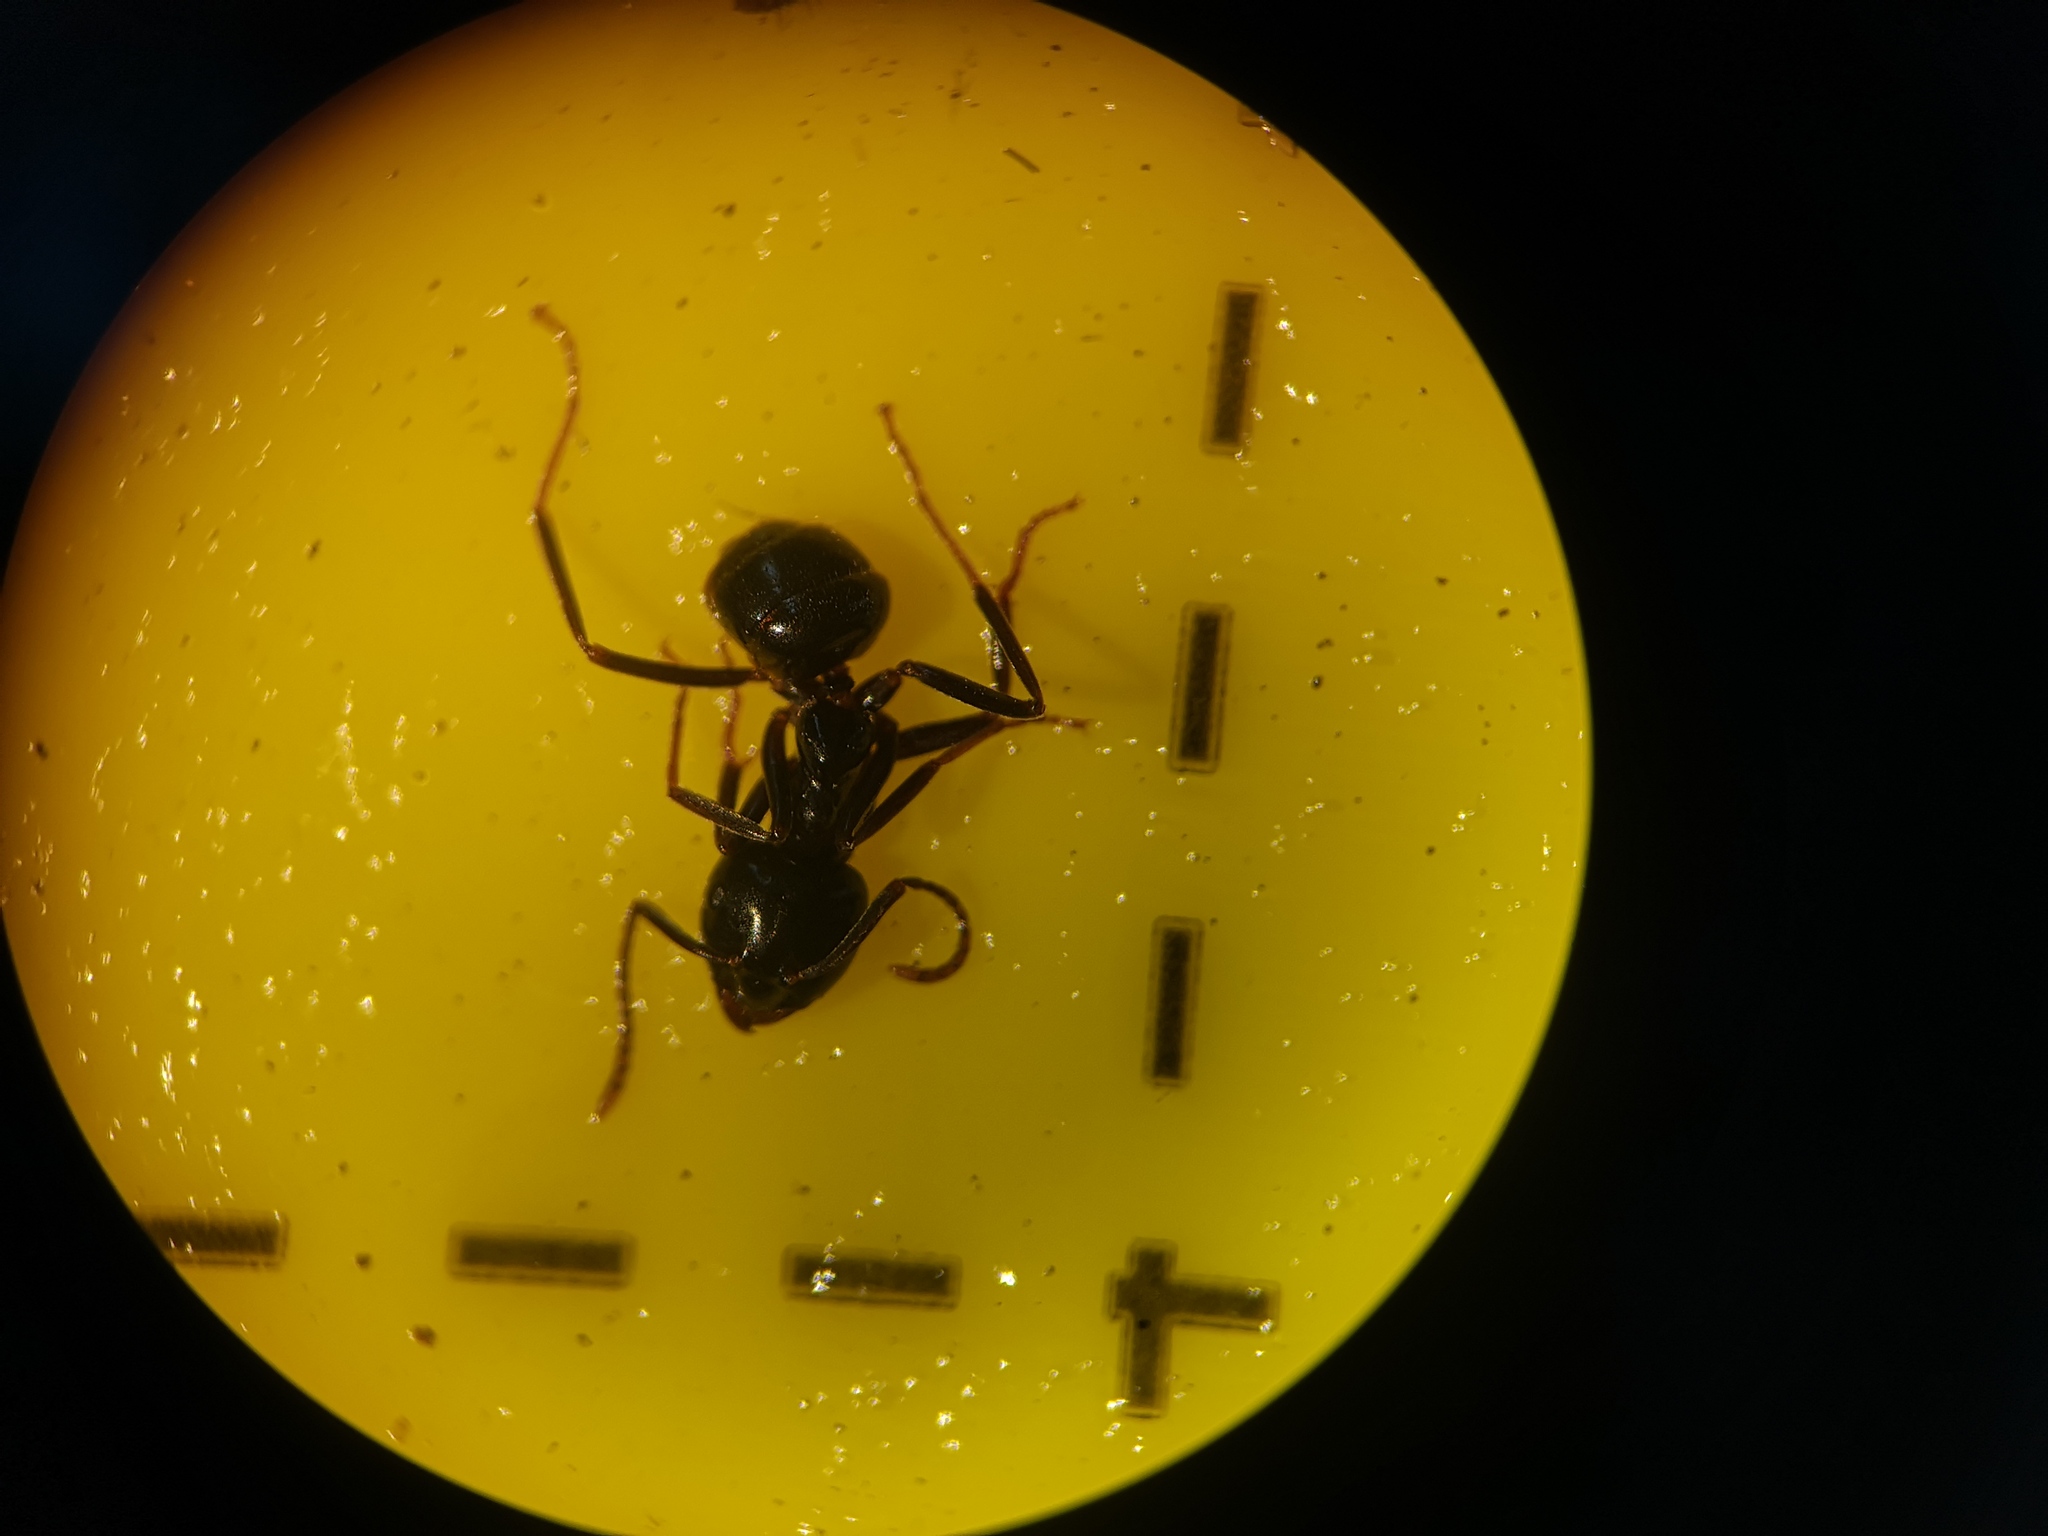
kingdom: Animalia
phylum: Arthropoda
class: Insecta
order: Hymenoptera
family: Formicidae
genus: Lasius
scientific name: Lasius fuliginosus
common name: Jet ant
